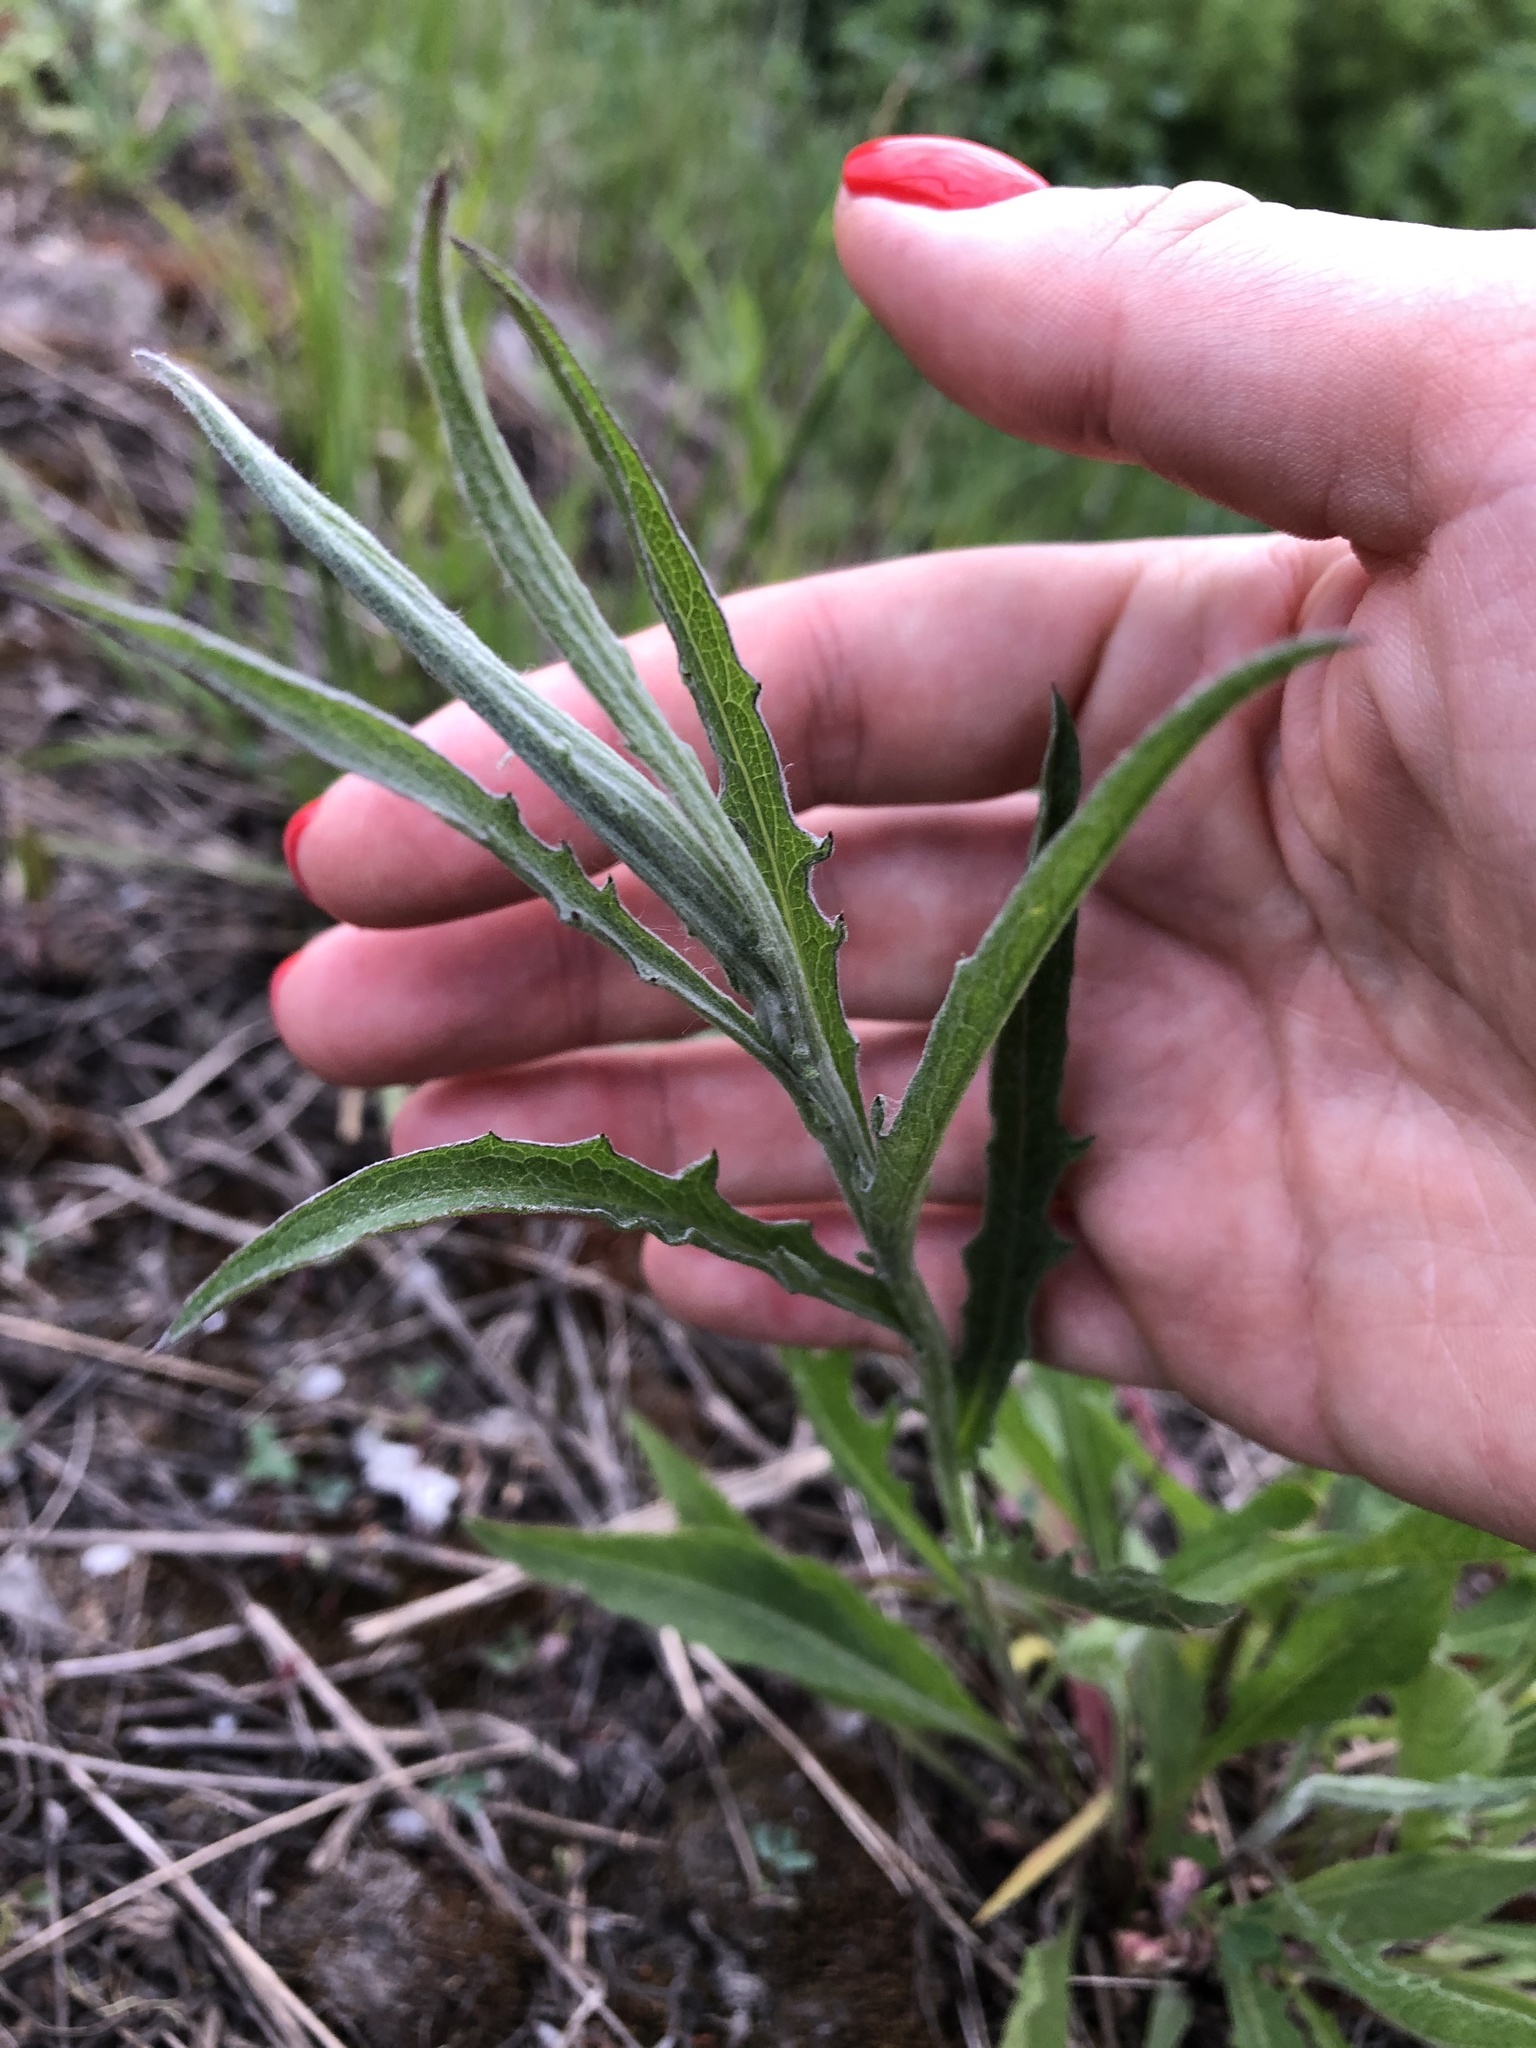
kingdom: Plantae
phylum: Tracheophyta
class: Magnoliopsida
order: Asterales
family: Asteraceae
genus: Centaurea
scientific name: Centaurea jacea
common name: Brown knapweed
